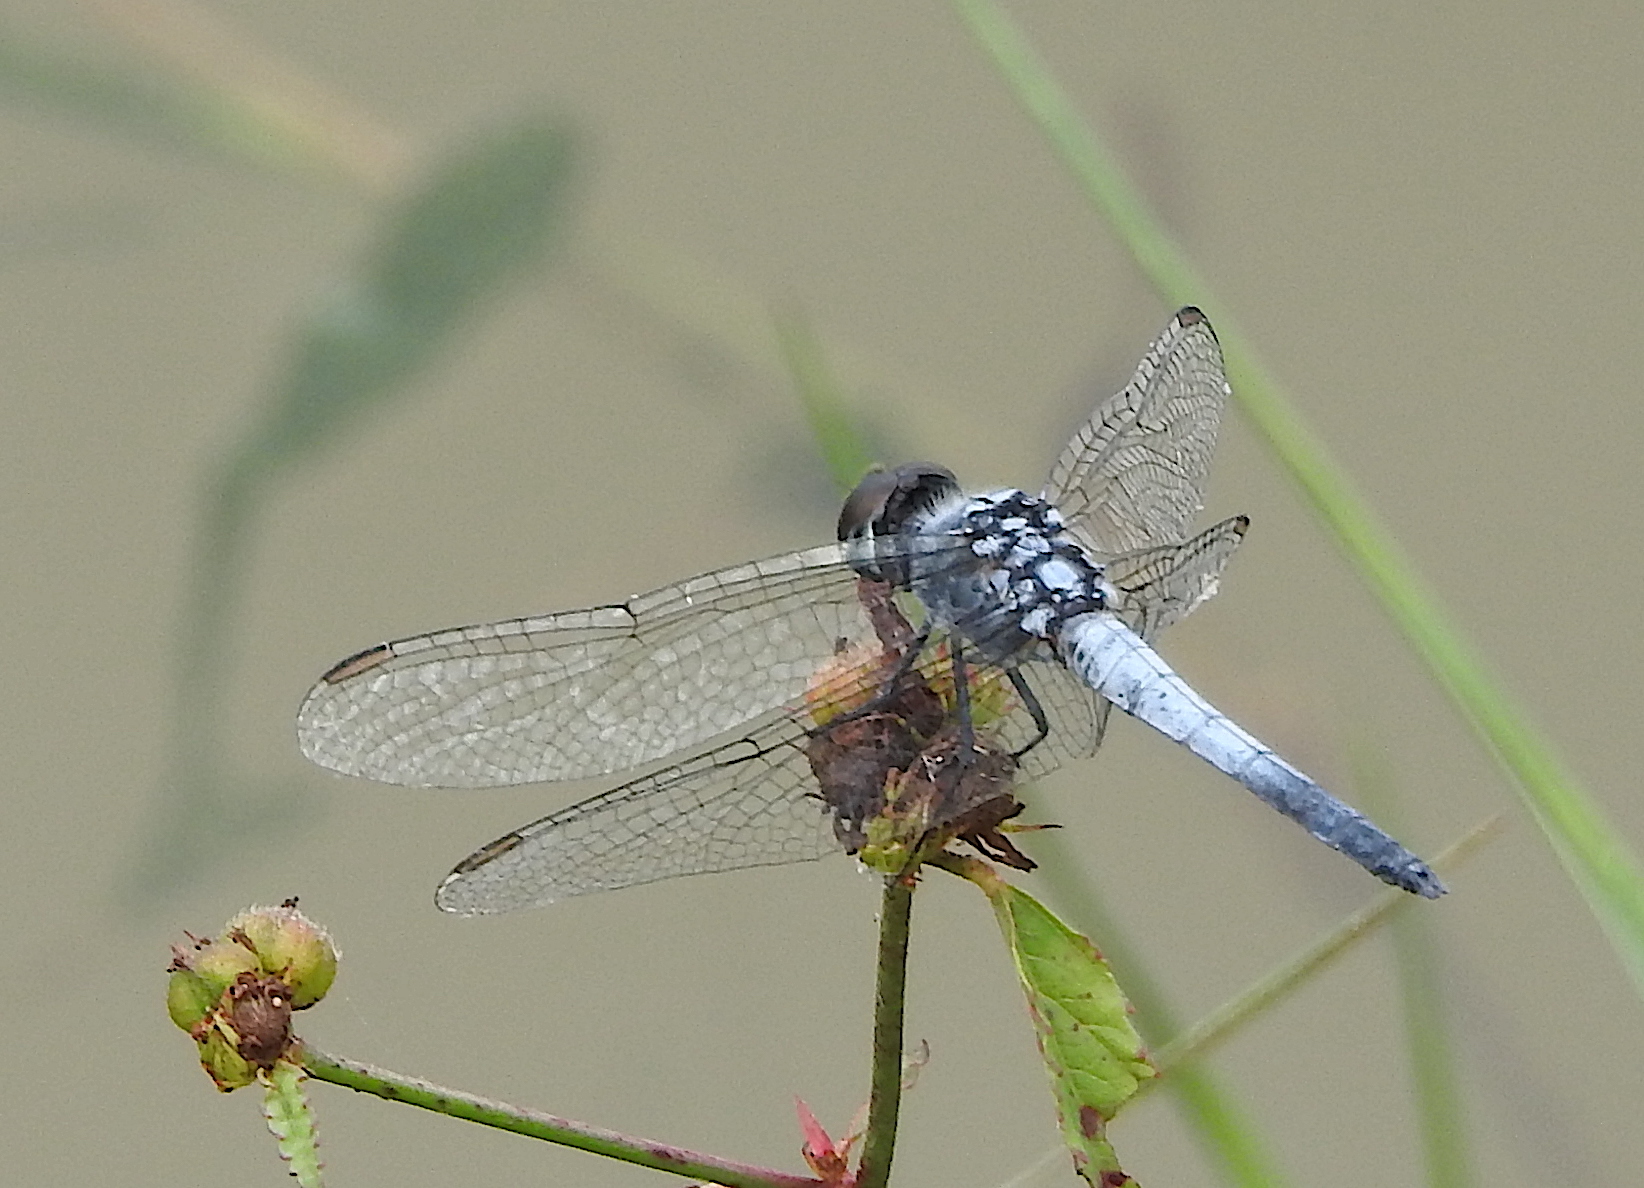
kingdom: Animalia
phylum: Arthropoda
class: Insecta
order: Odonata
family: Libellulidae
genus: Brachydiplax
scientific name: Brachydiplax sobrina
